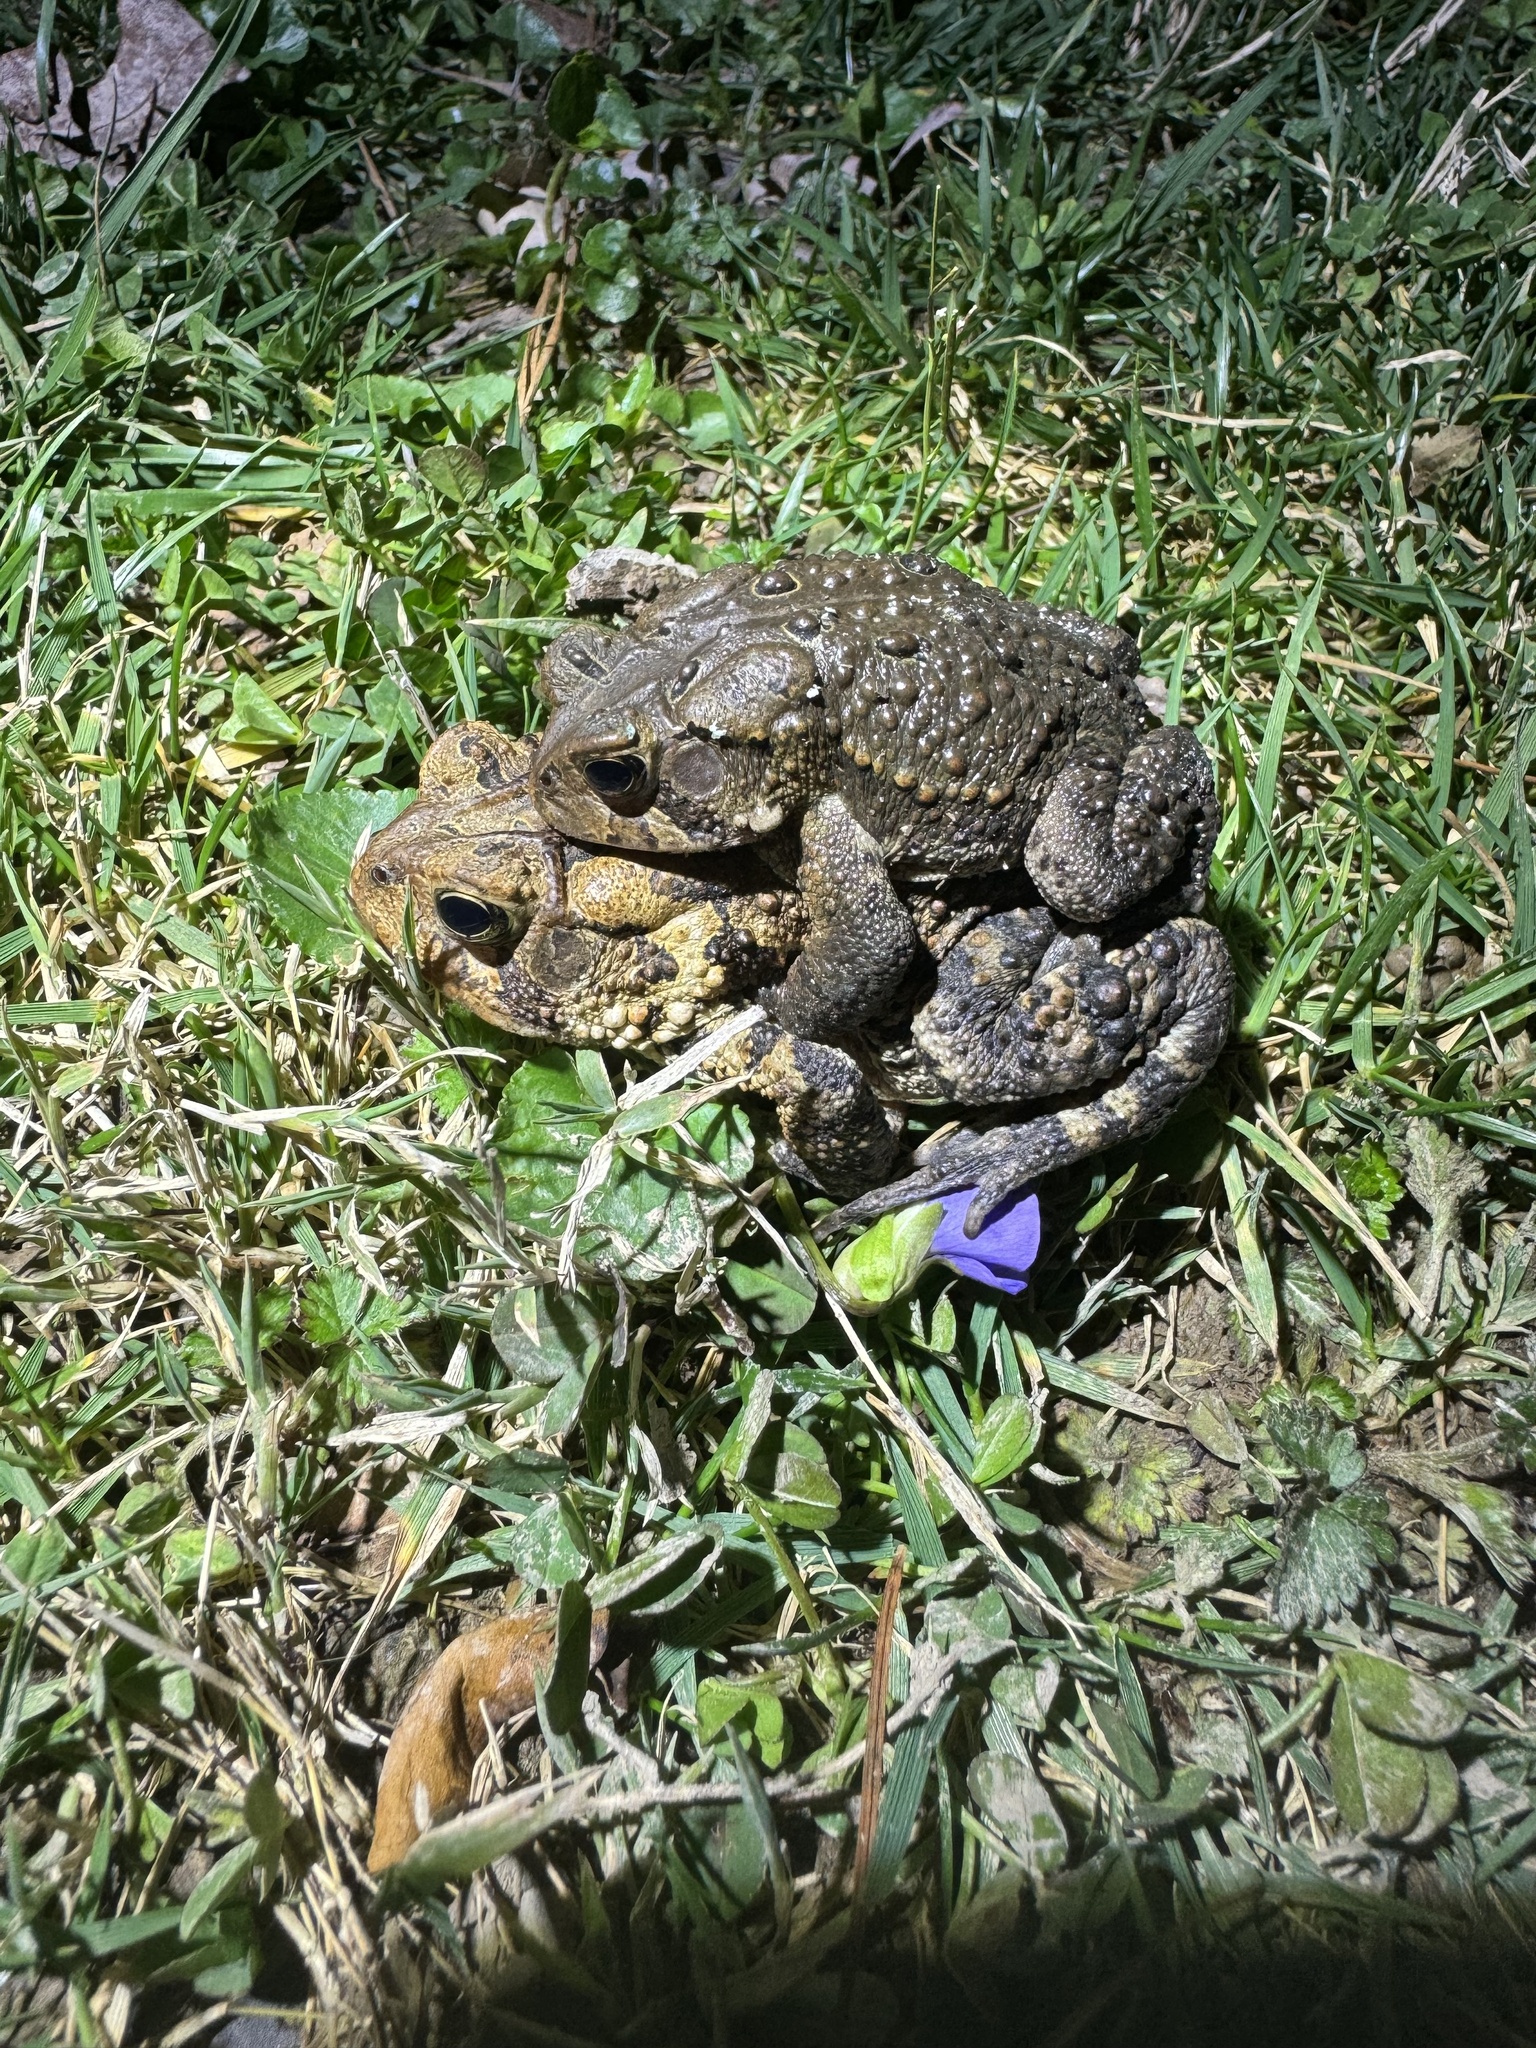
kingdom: Animalia
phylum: Chordata
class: Amphibia
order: Anura
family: Bufonidae
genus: Anaxyrus
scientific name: Anaxyrus americanus
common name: American toad
